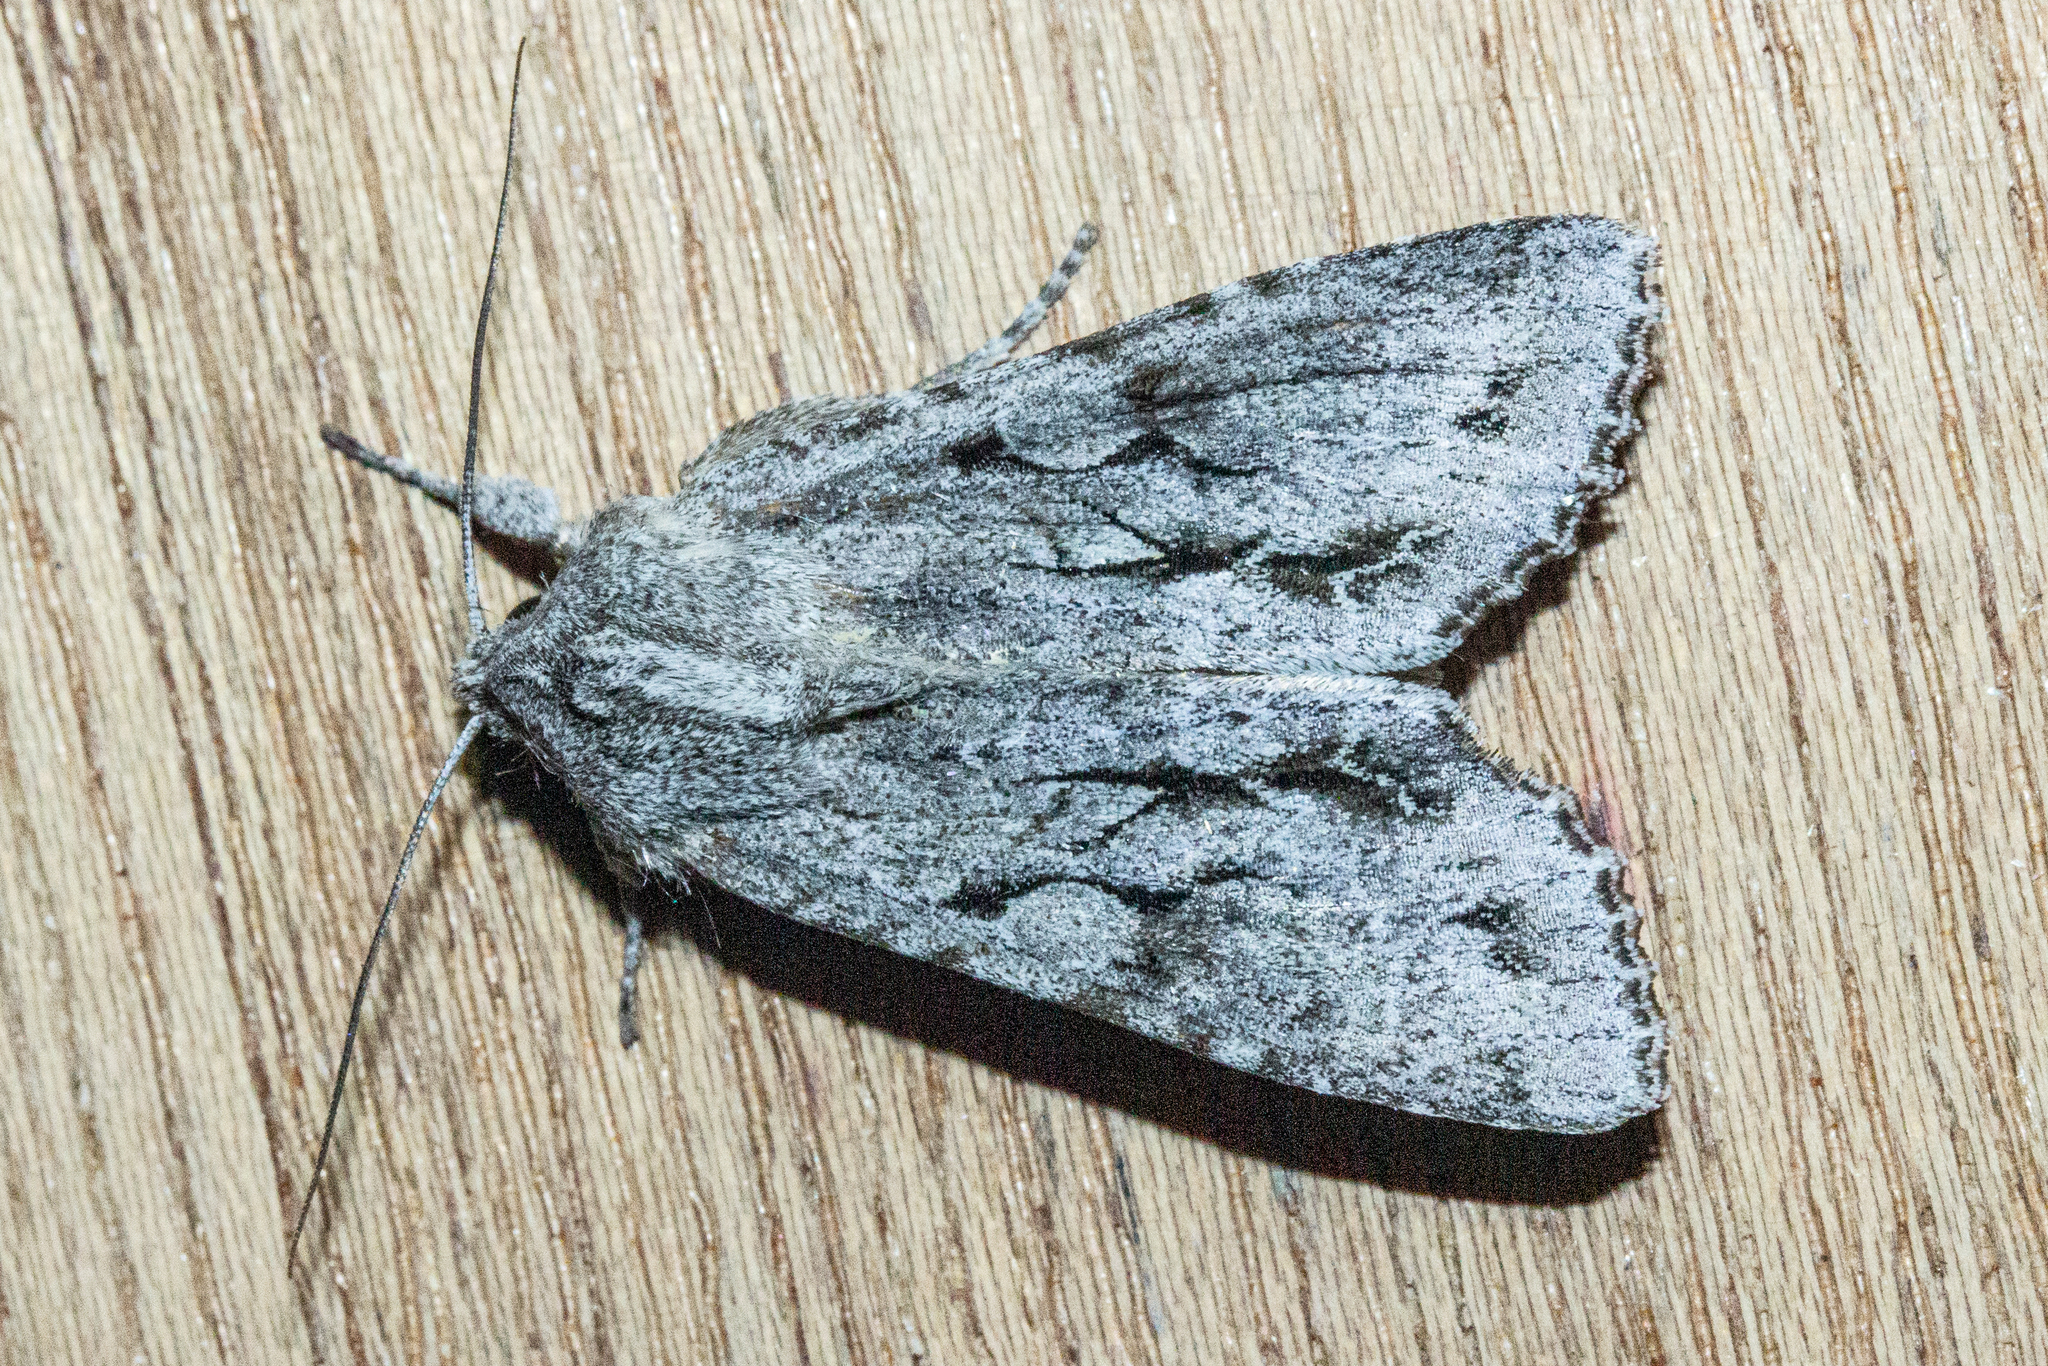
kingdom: Animalia
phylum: Arthropoda
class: Insecta
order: Lepidoptera
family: Noctuidae
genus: Ichneutica
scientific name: Ichneutica
